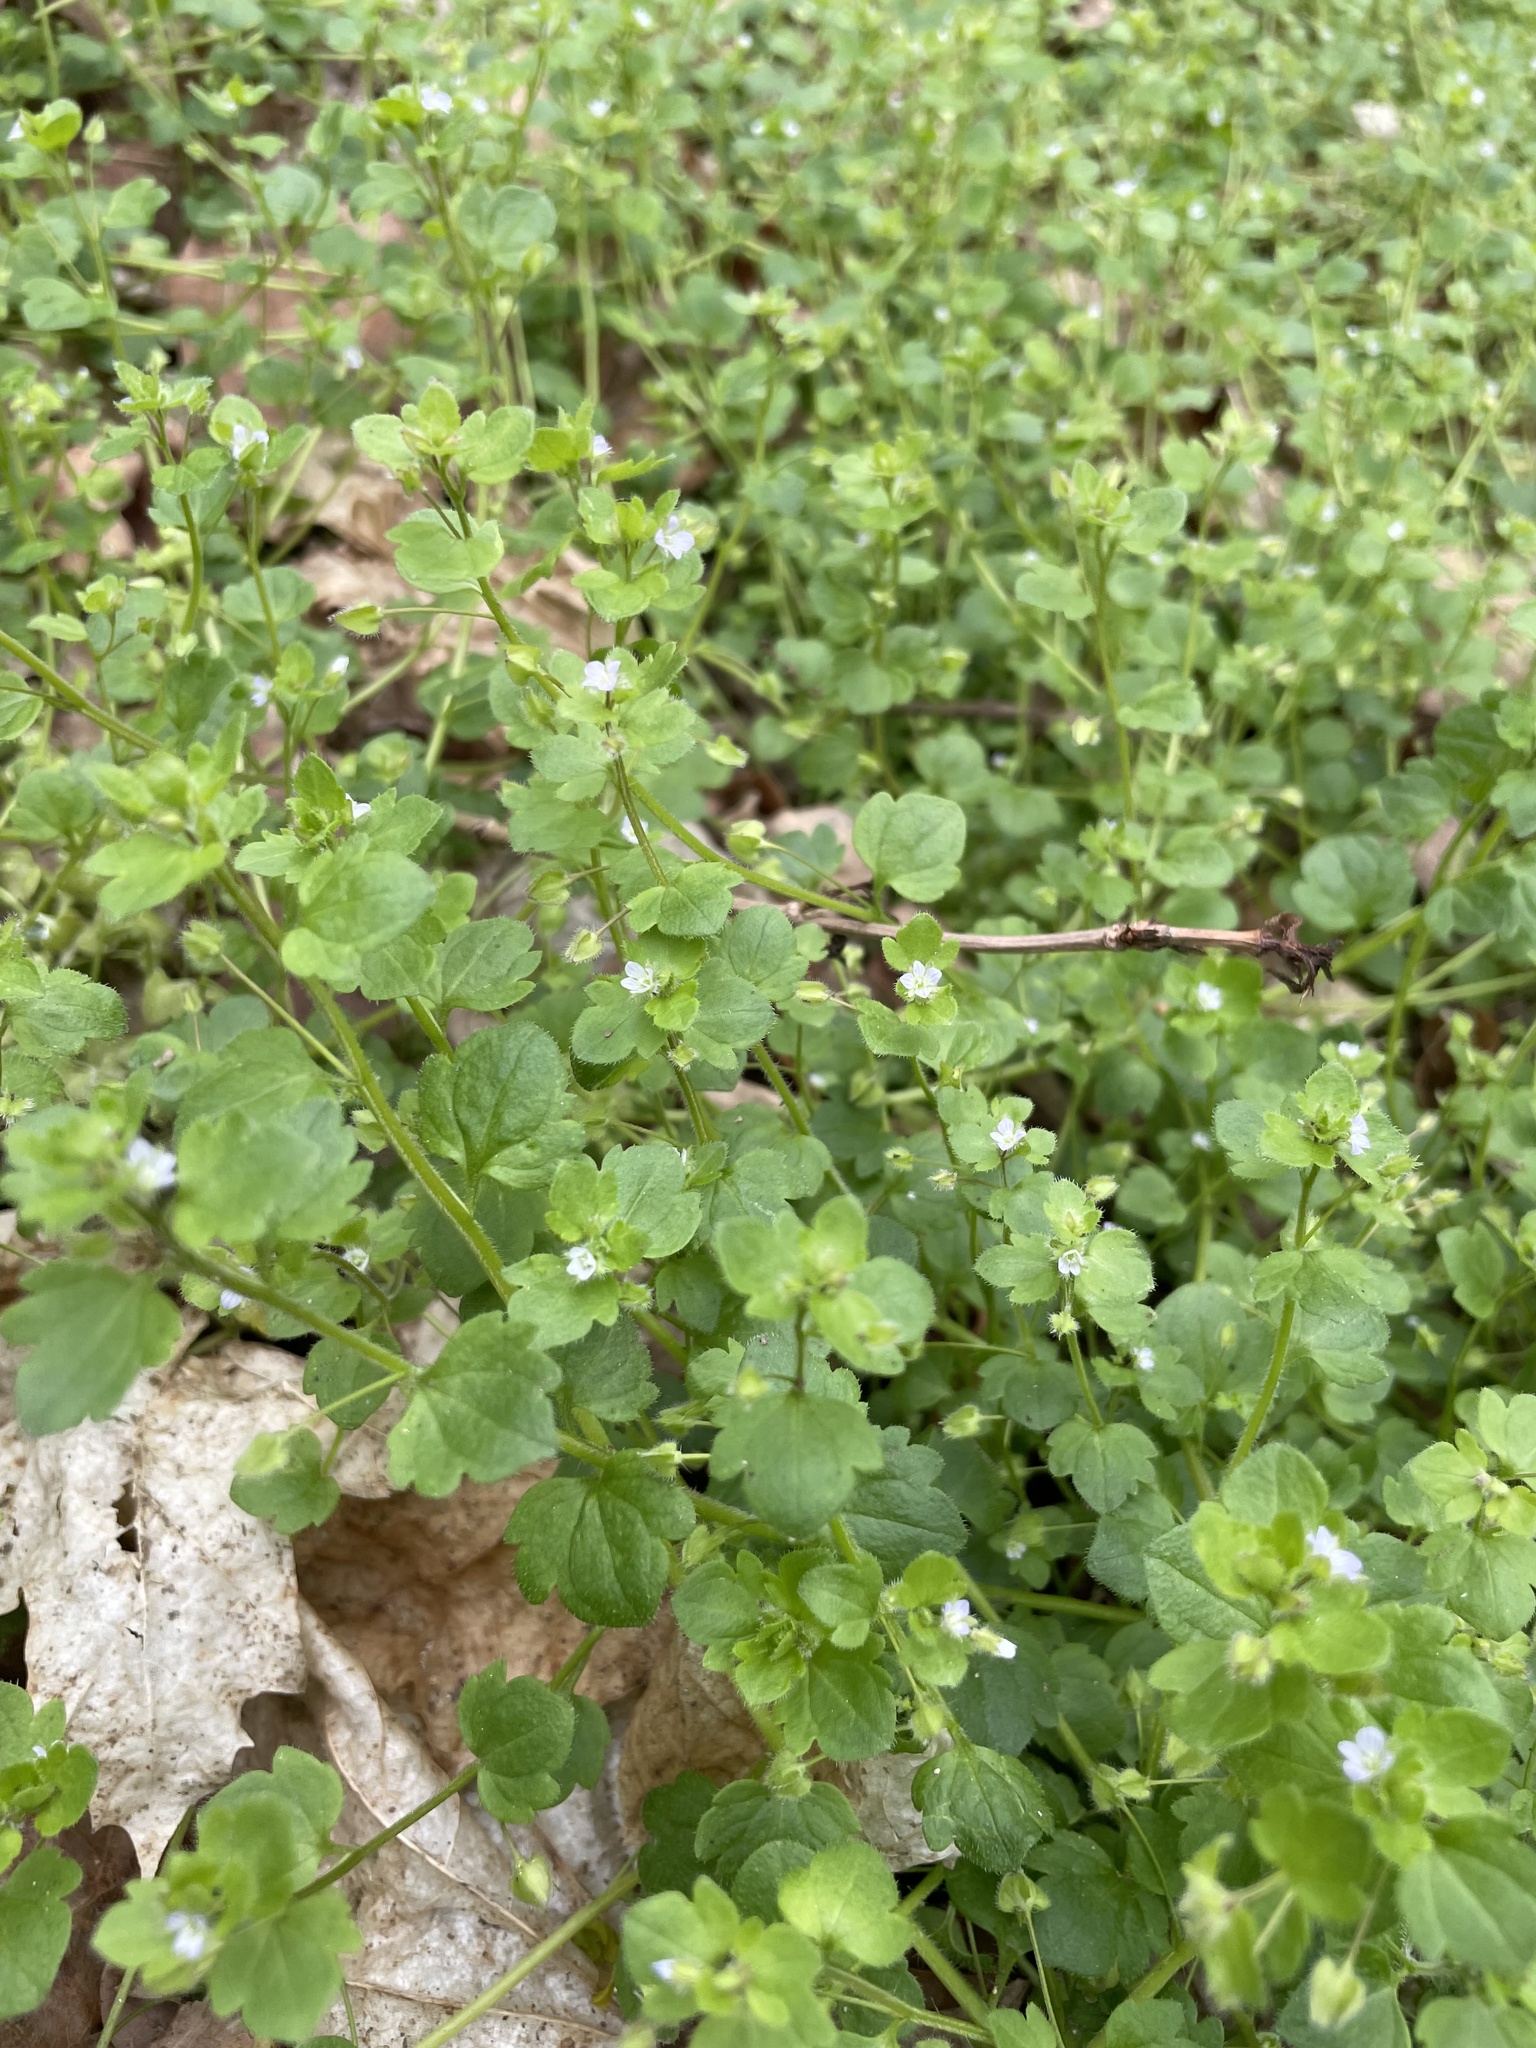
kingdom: Plantae
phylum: Tracheophyta
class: Magnoliopsida
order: Lamiales
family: Plantaginaceae
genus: Veronica
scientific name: Veronica sublobata
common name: False ivy-leaved speedwell
